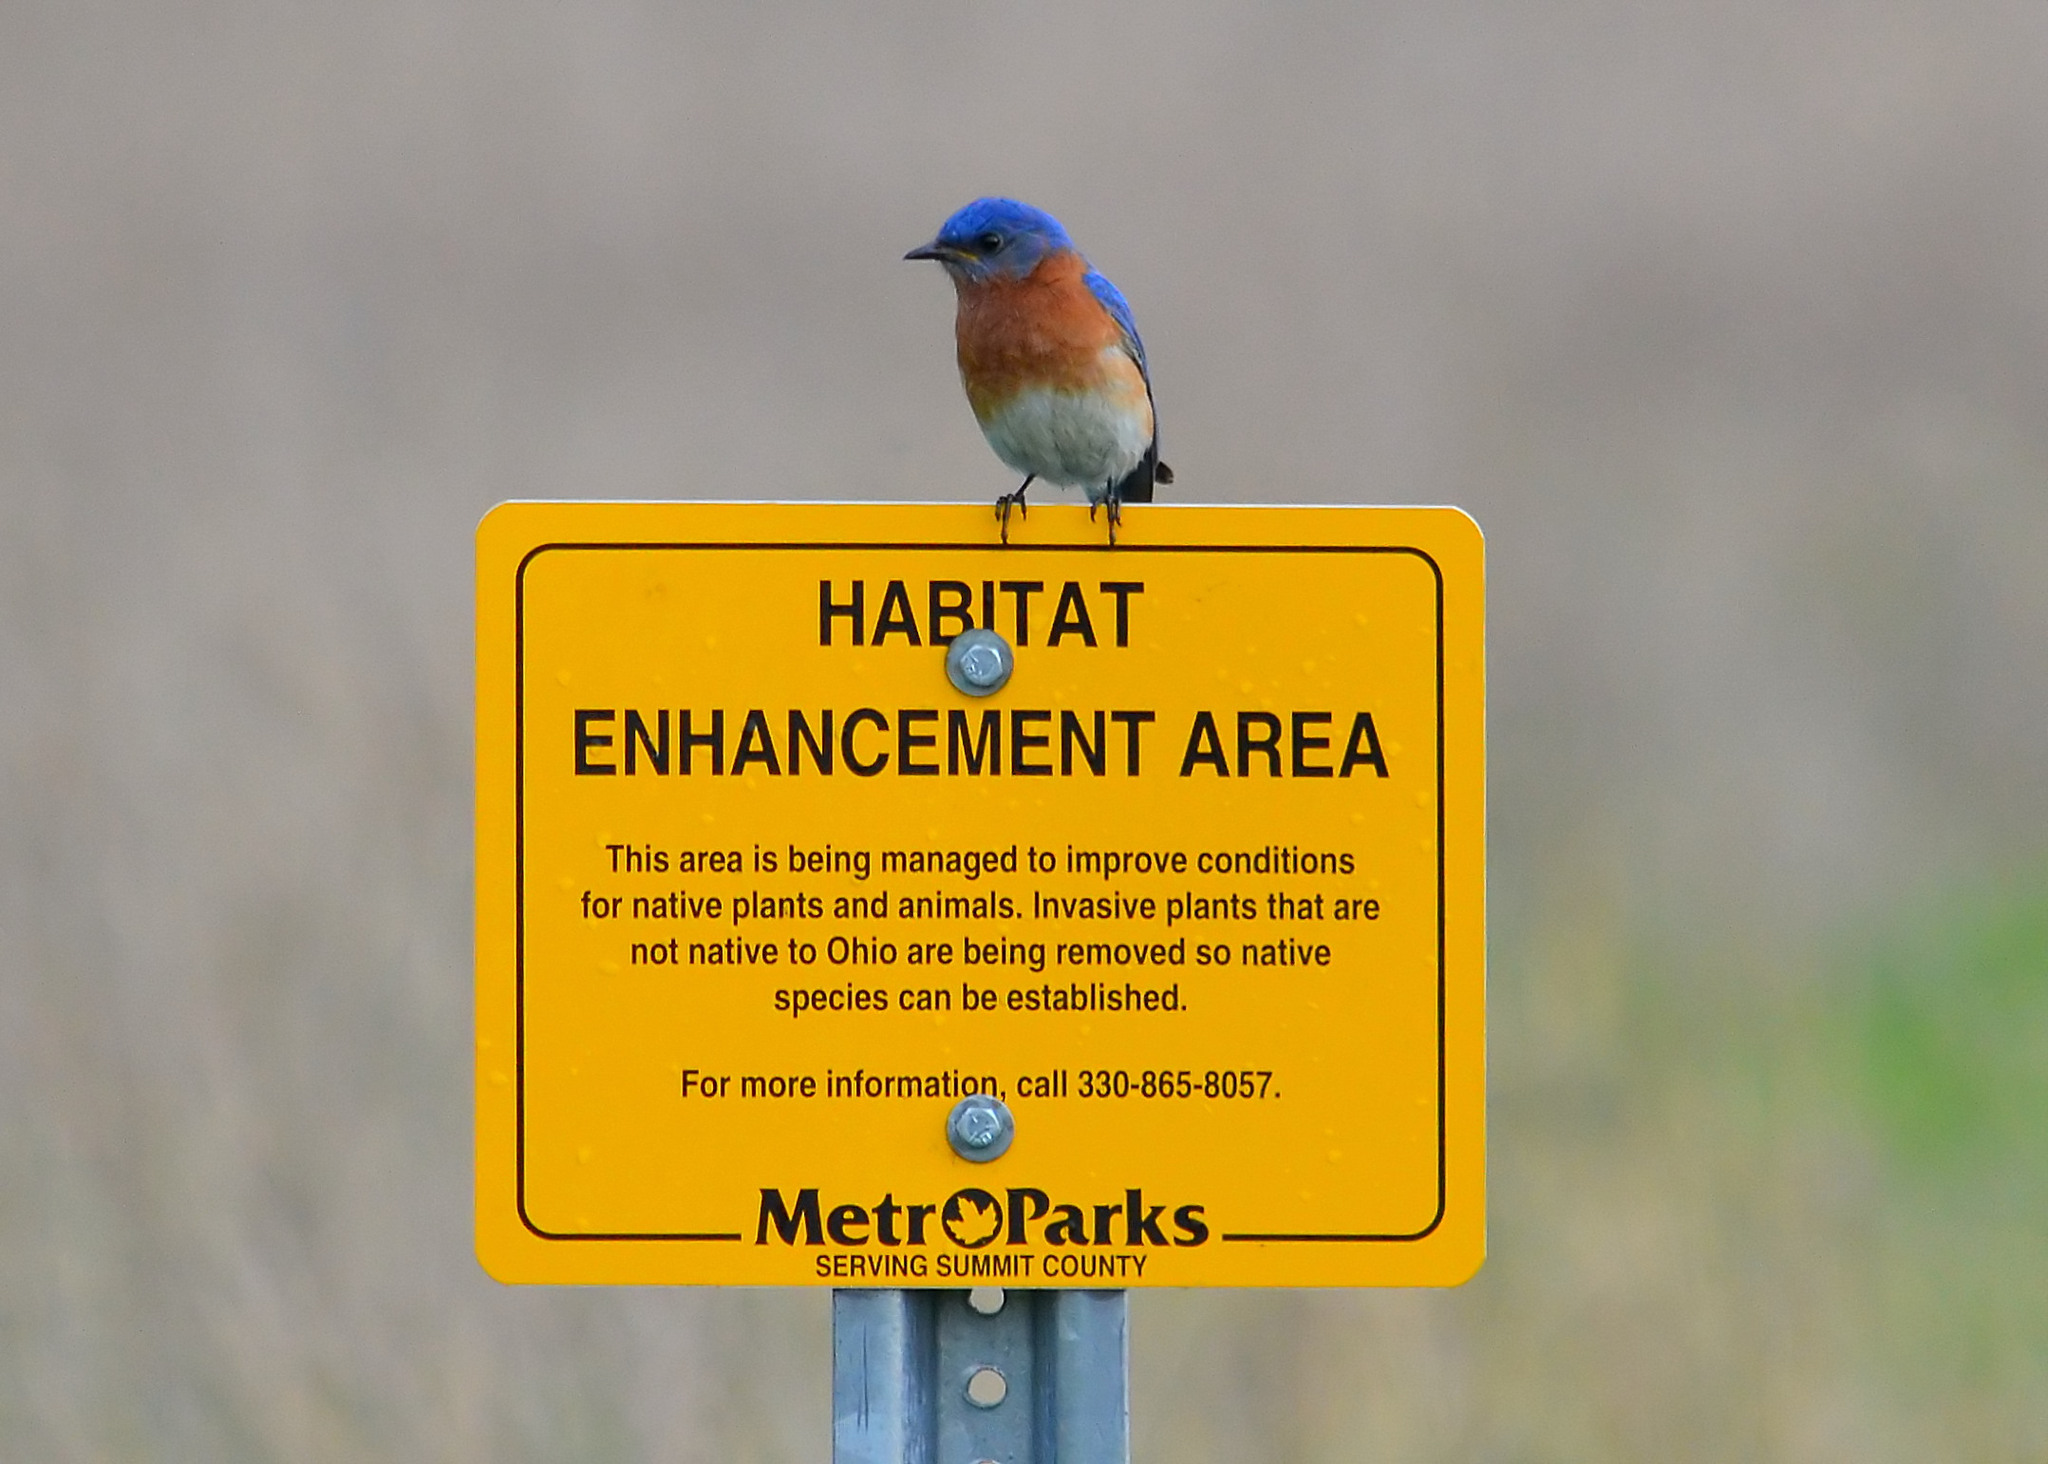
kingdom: Animalia
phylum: Chordata
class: Aves
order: Passeriformes
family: Turdidae
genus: Sialia
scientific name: Sialia sialis
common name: Eastern bluebird
